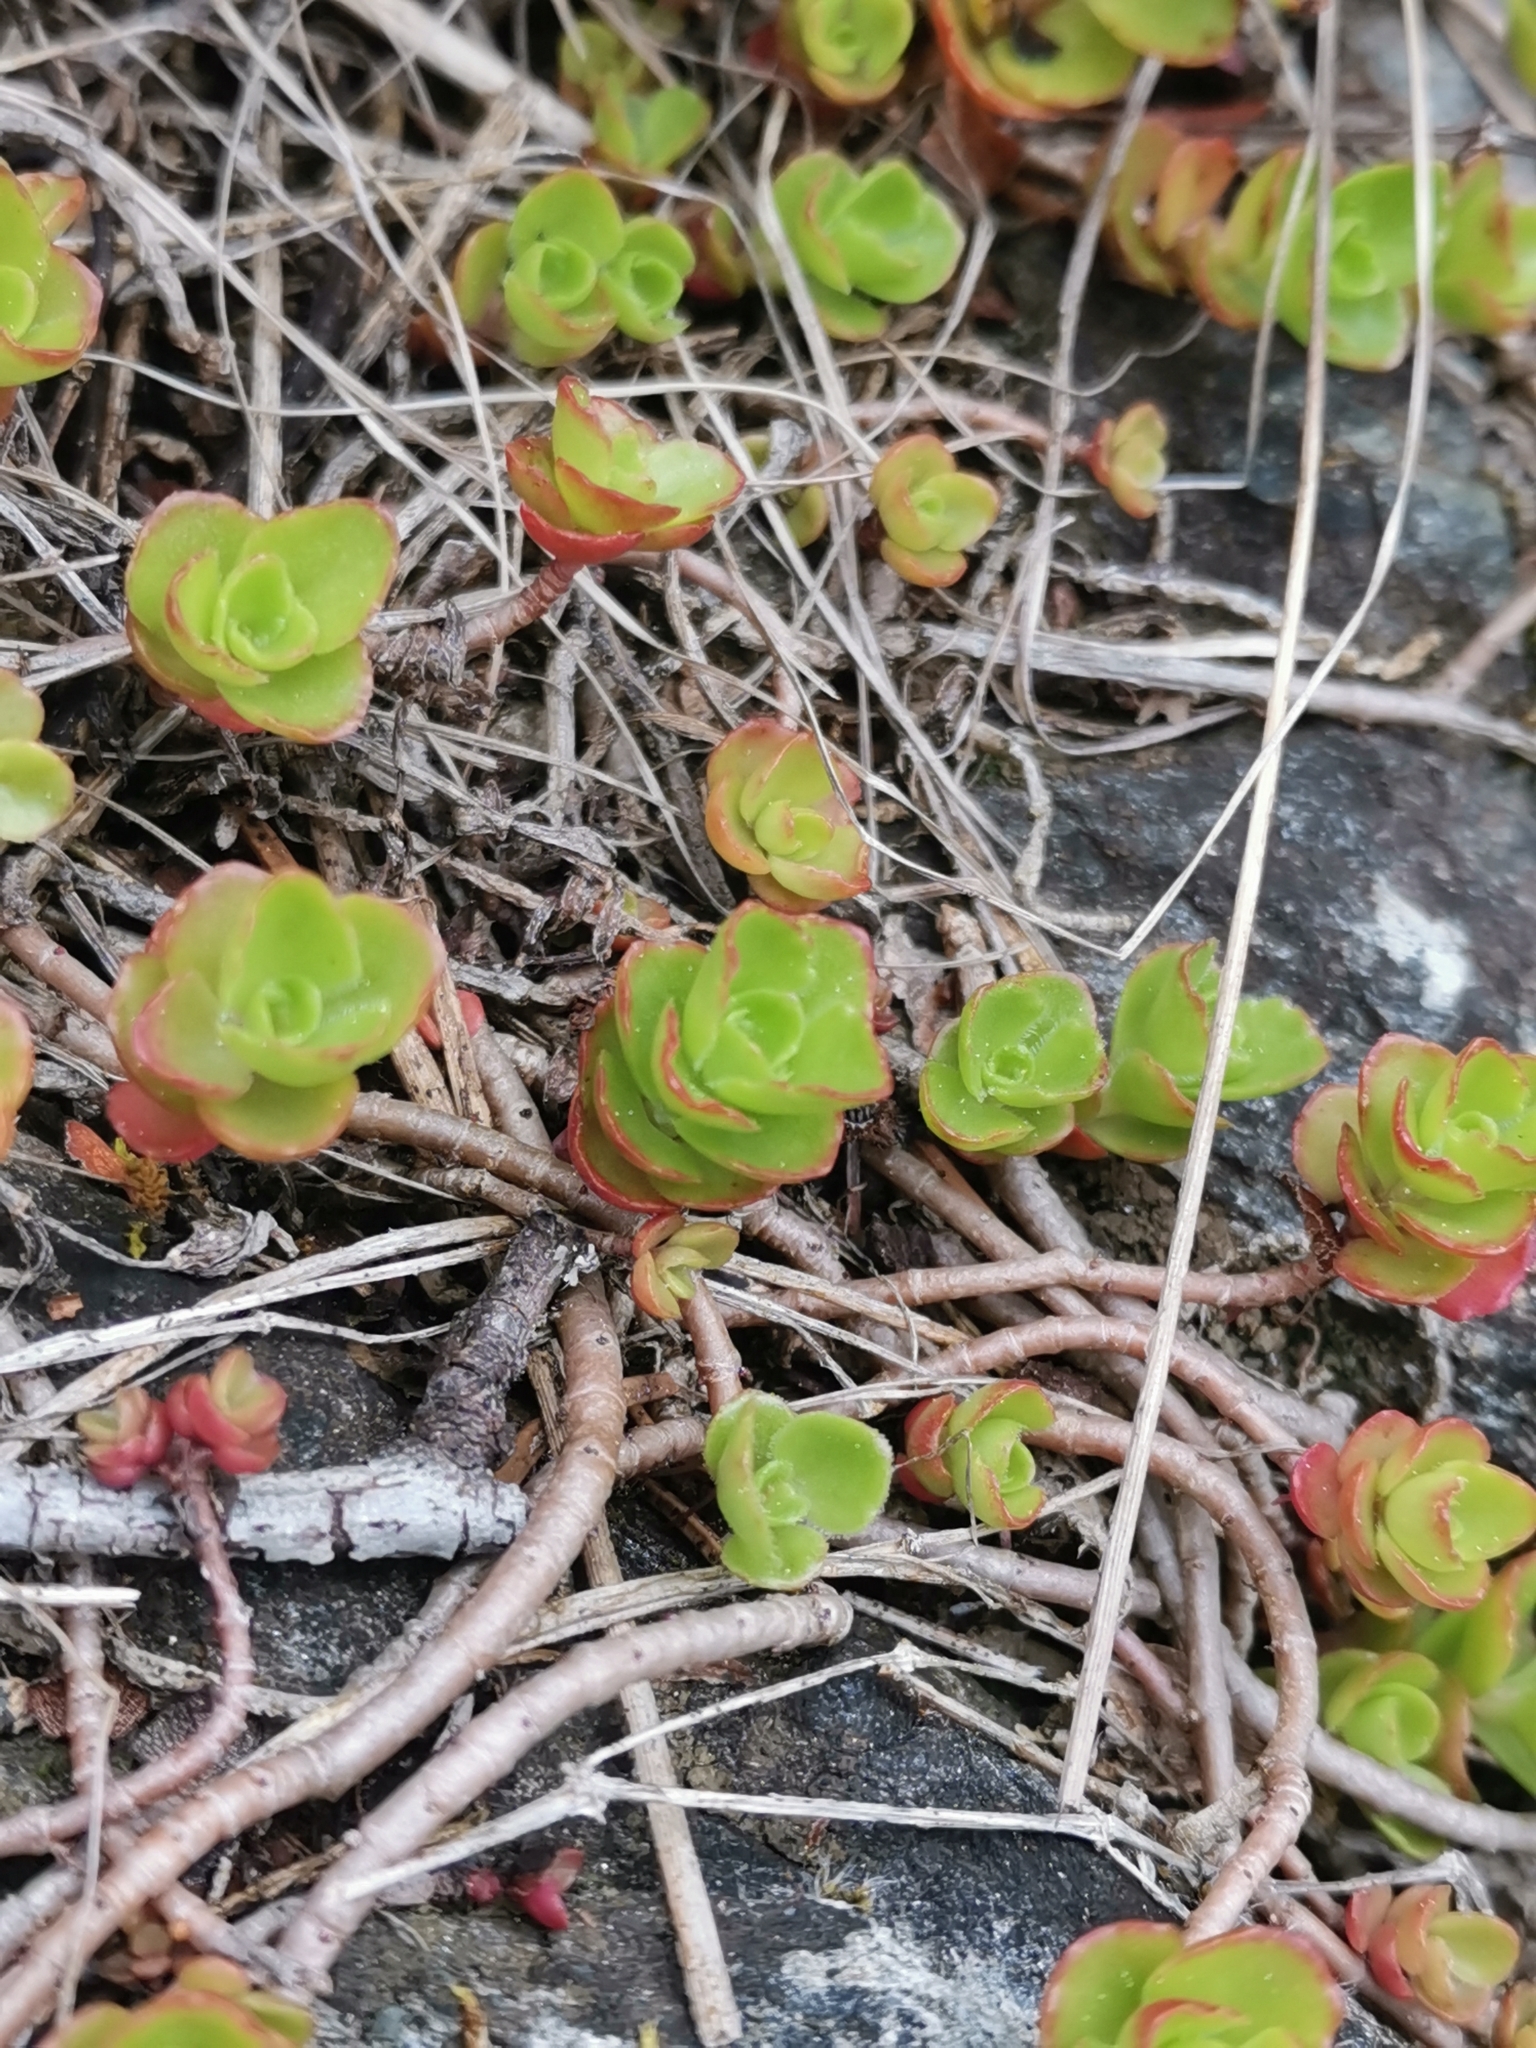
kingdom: Plantae
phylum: Tracheophyta
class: Magnoliopsida
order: Saxifragales
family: Crassulaceae
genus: Phedimus
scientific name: Phedimus spurius
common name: Caucasian stonecrop
